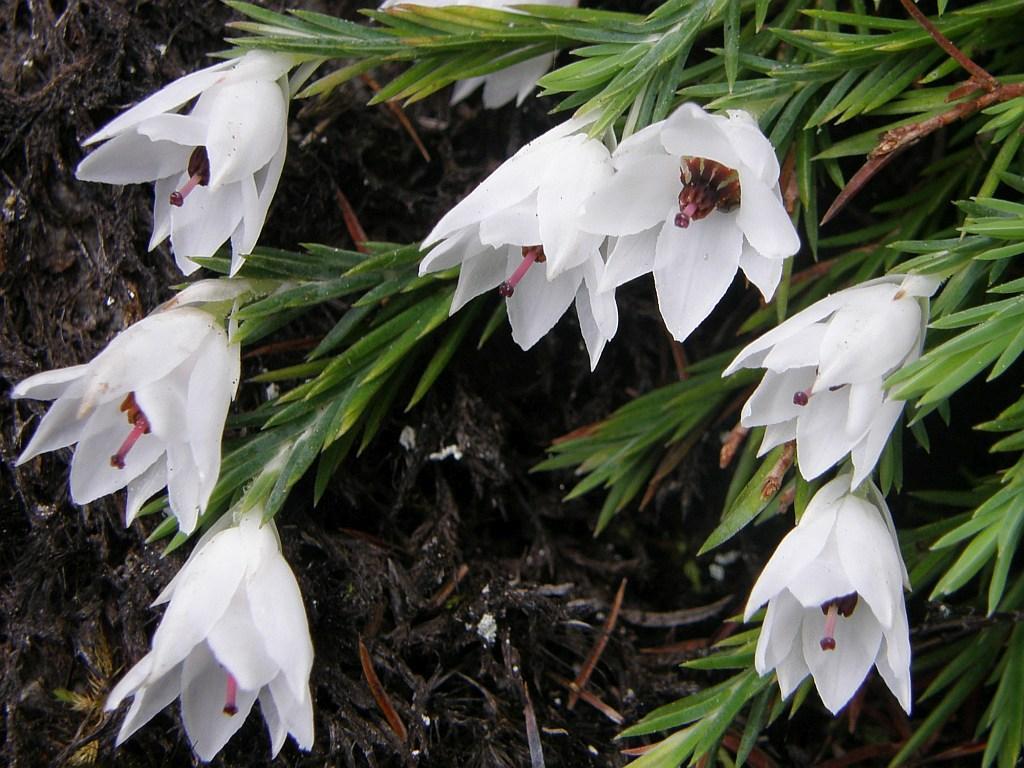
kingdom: Plantae
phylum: Tracheophyta
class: Magnoliopsida
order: Ericales
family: Ericaceae
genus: Erica
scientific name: Erica galgebergensis
